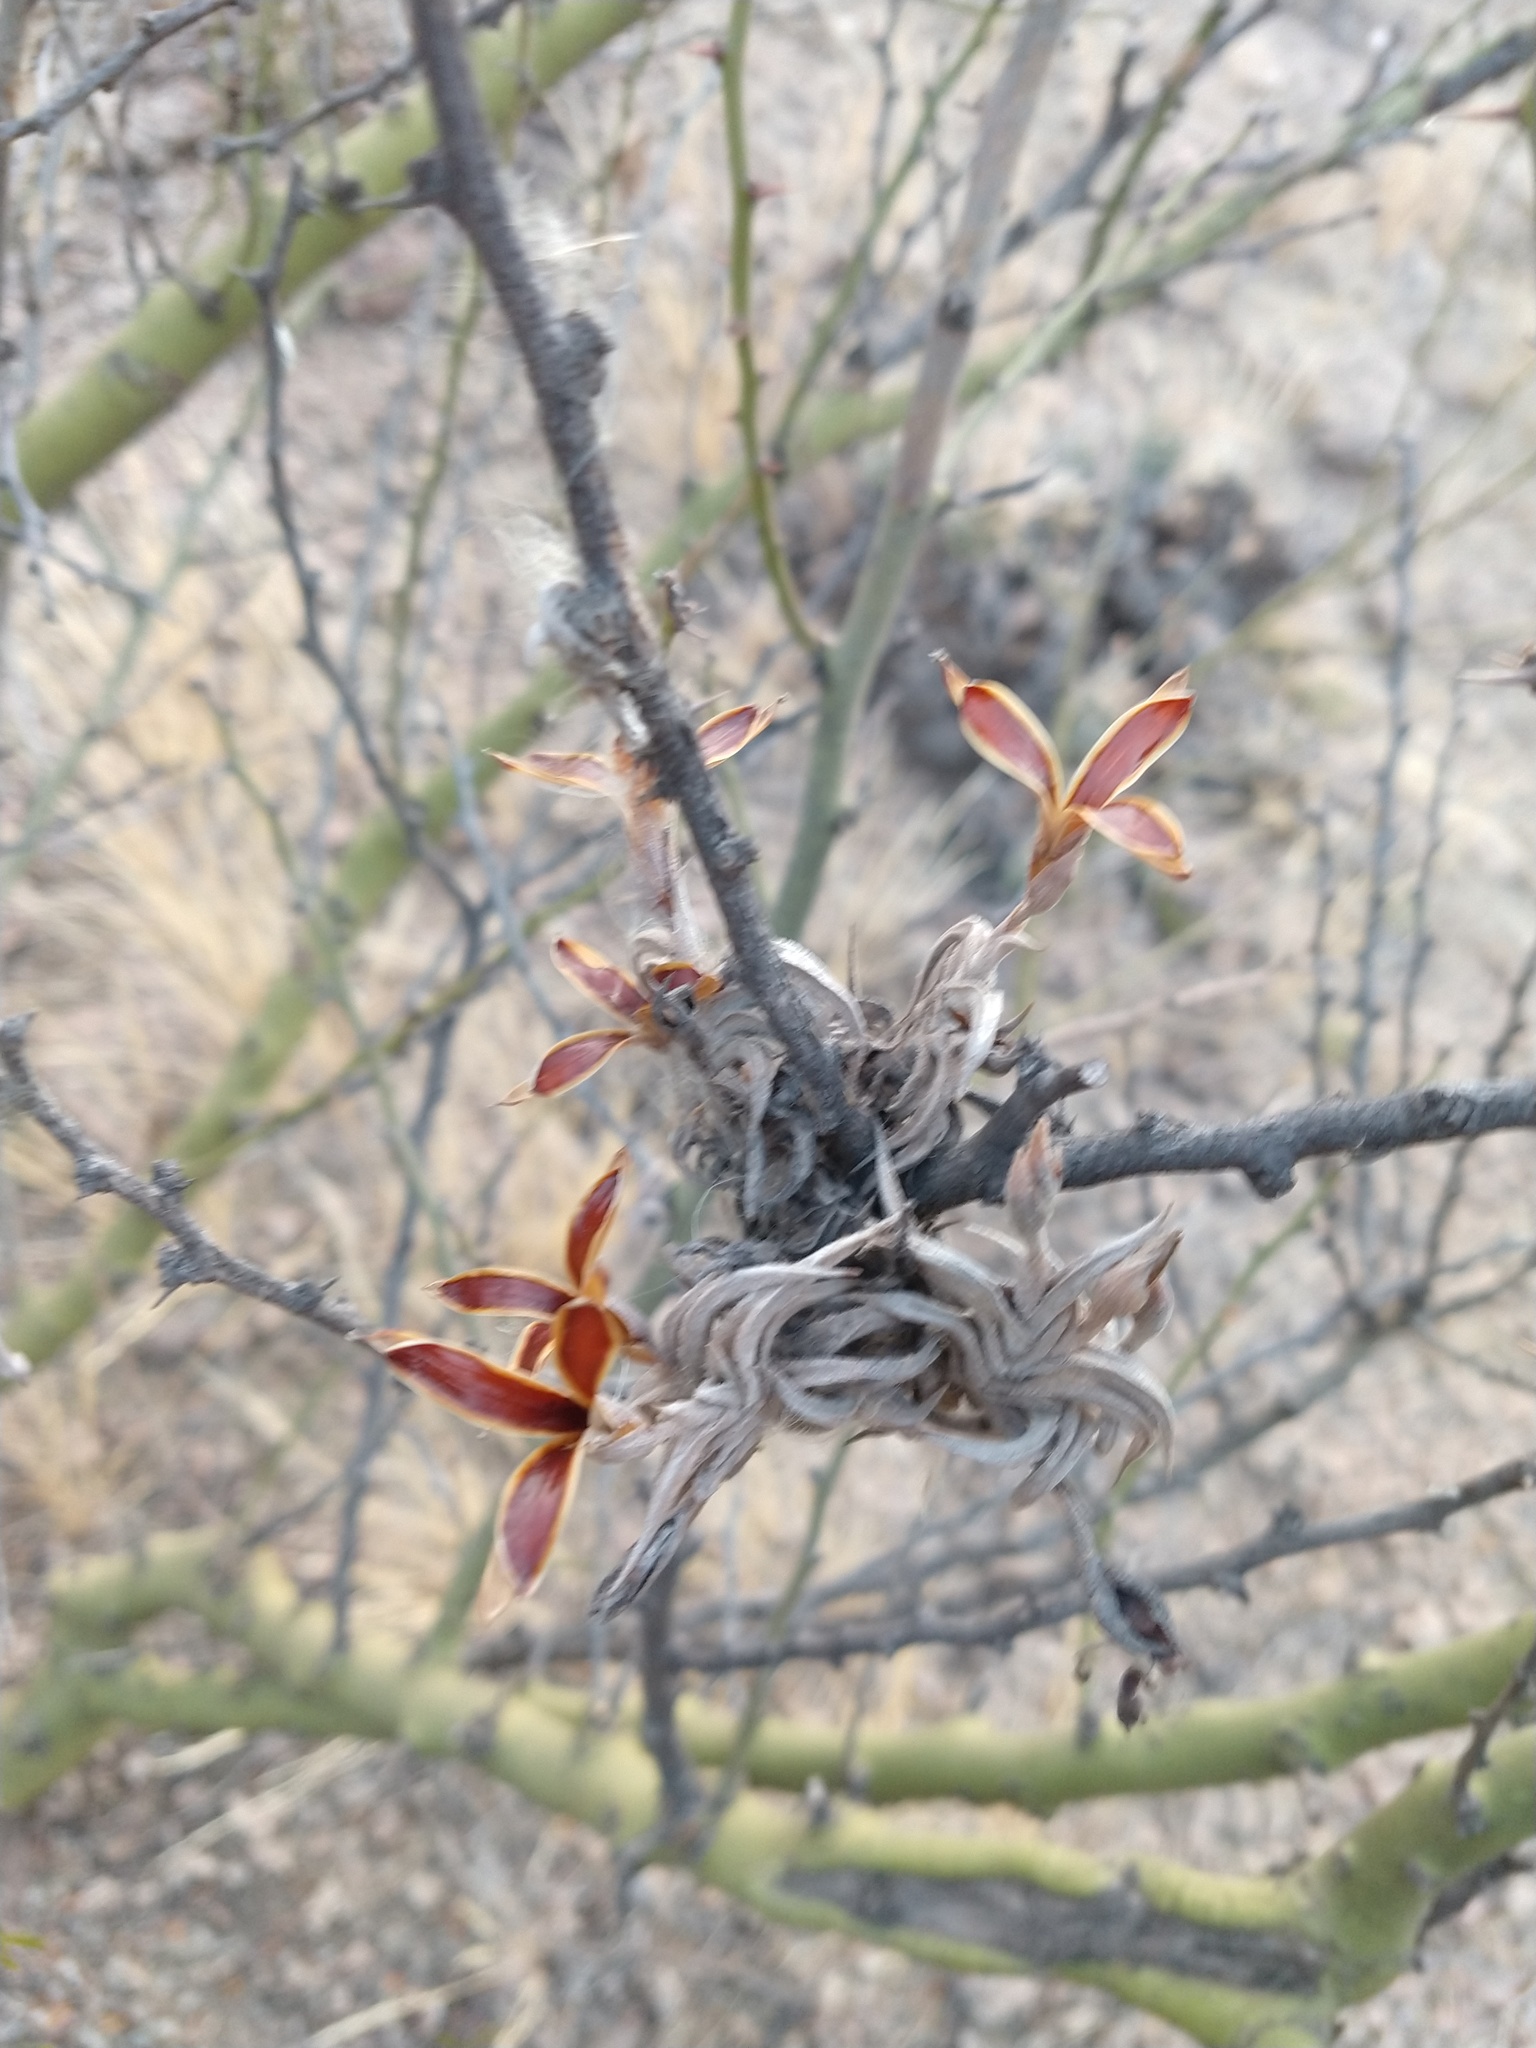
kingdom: Plantae
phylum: Tracheophyta
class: Liliopsida
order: Poales
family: Bromeliaceae
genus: Tillandsia
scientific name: Tillandsia gilliesii
